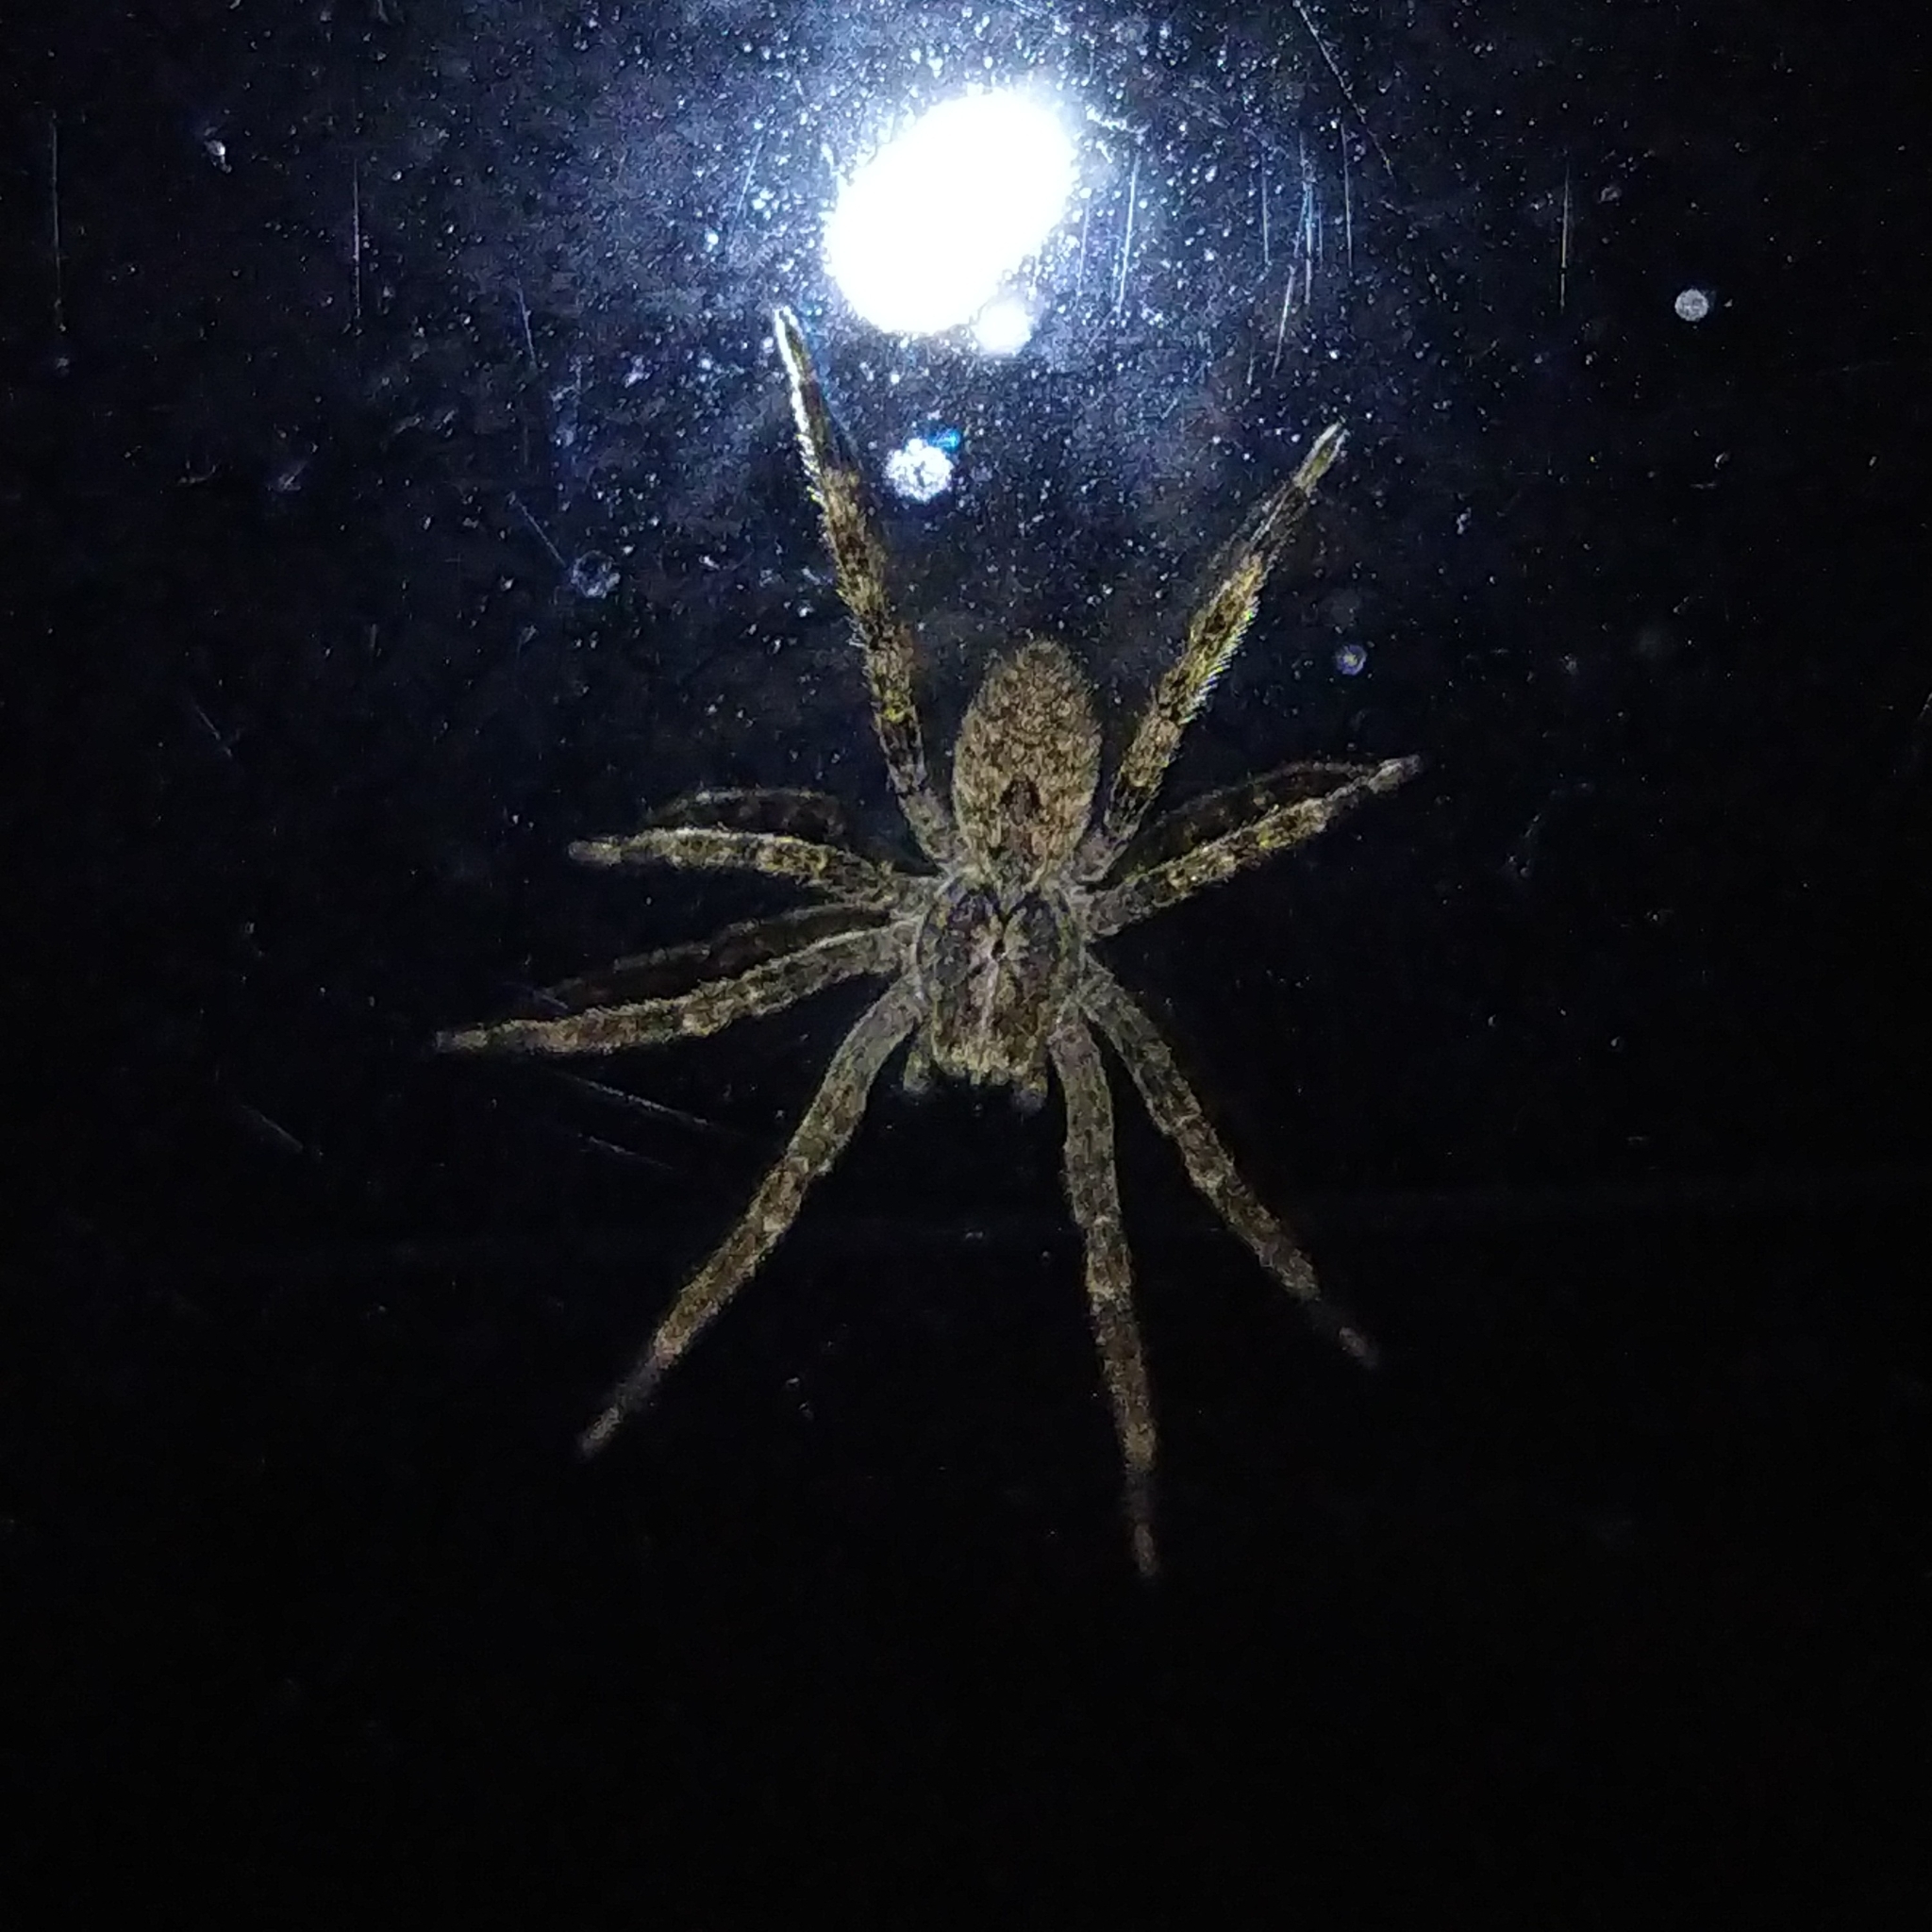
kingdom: Animalia
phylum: Arthropoda
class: Arachnida
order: Araneae
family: Zoropsidae
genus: Zoropsis
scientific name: Zoropsis spinimana
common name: Zoropsid spider
